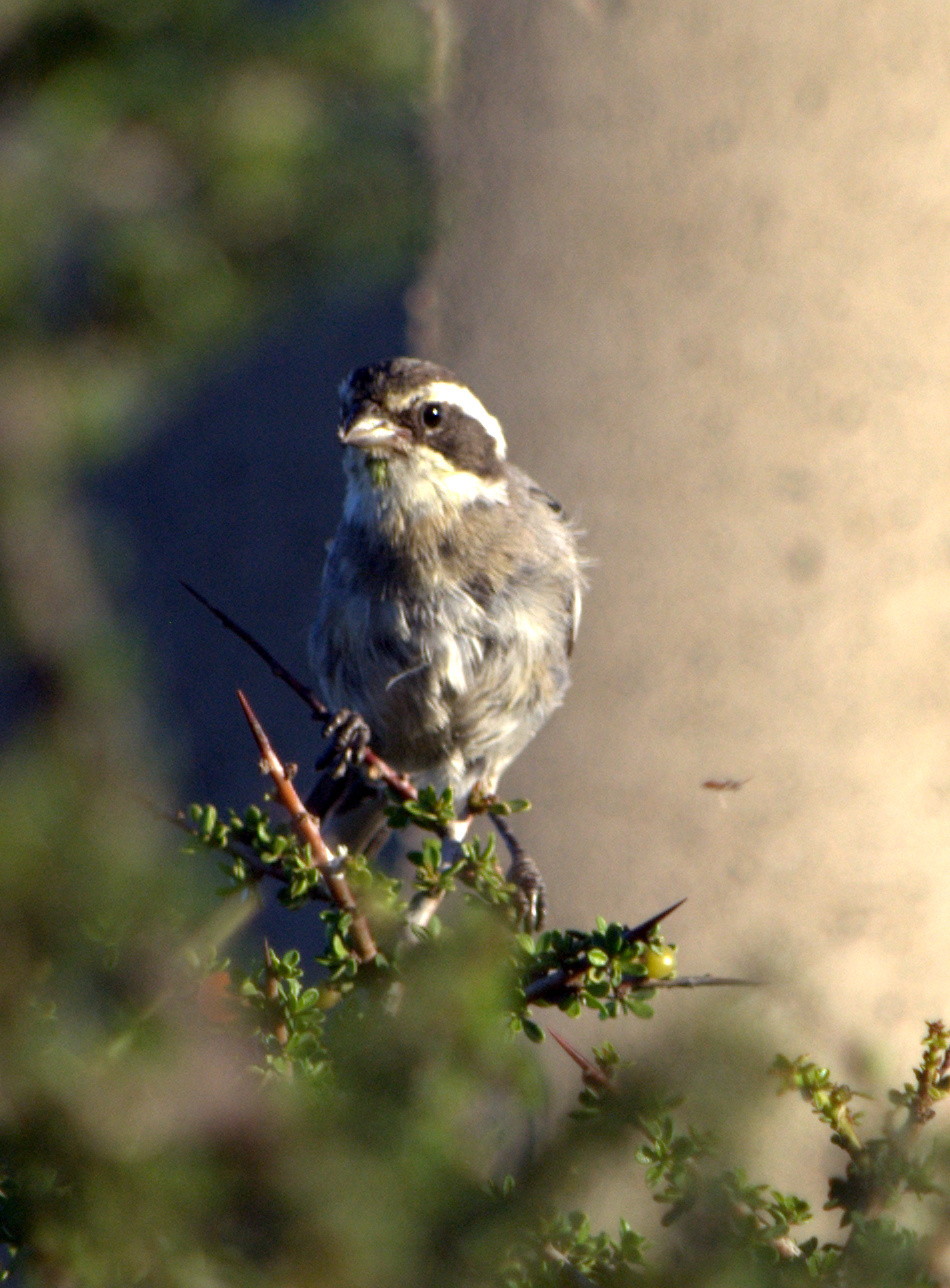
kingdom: Animalia
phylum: Chordata
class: Aves
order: Passeriformes
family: Thraupidae
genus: Microspingus
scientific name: Microspingus torquatus
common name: Ringed warbling-finch
